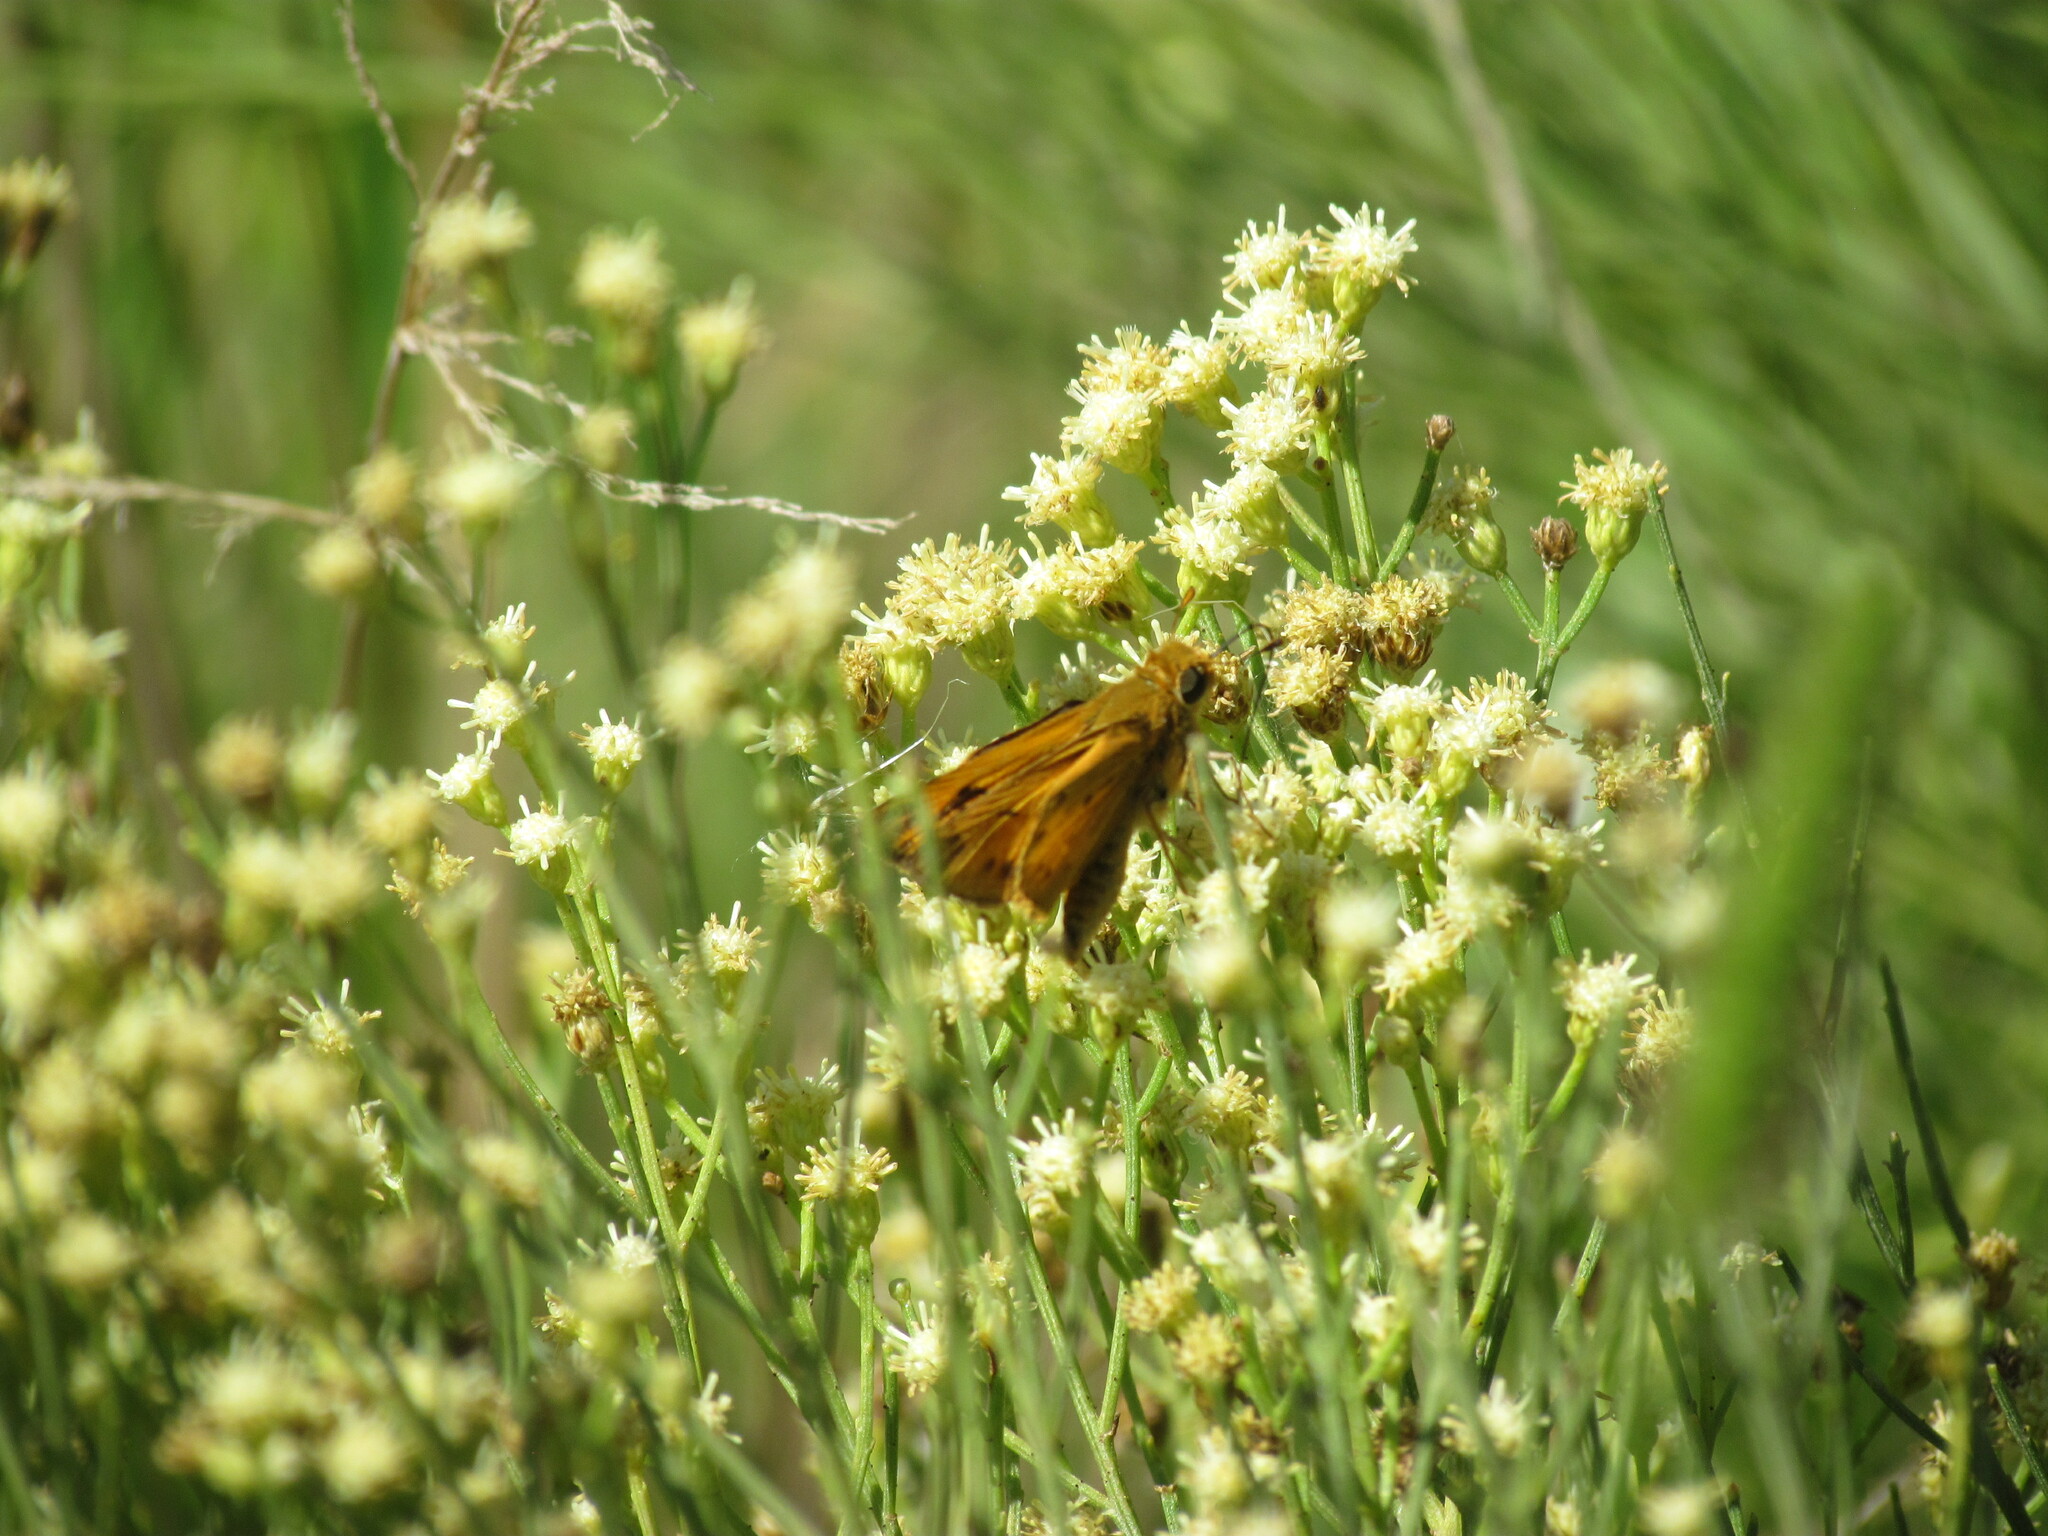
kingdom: Animalia
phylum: Arthropoda
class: Insecta
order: Lepidoptera
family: Hesperiidae
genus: Hylephila
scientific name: Hylephila phyleus
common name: Fiery skipper
